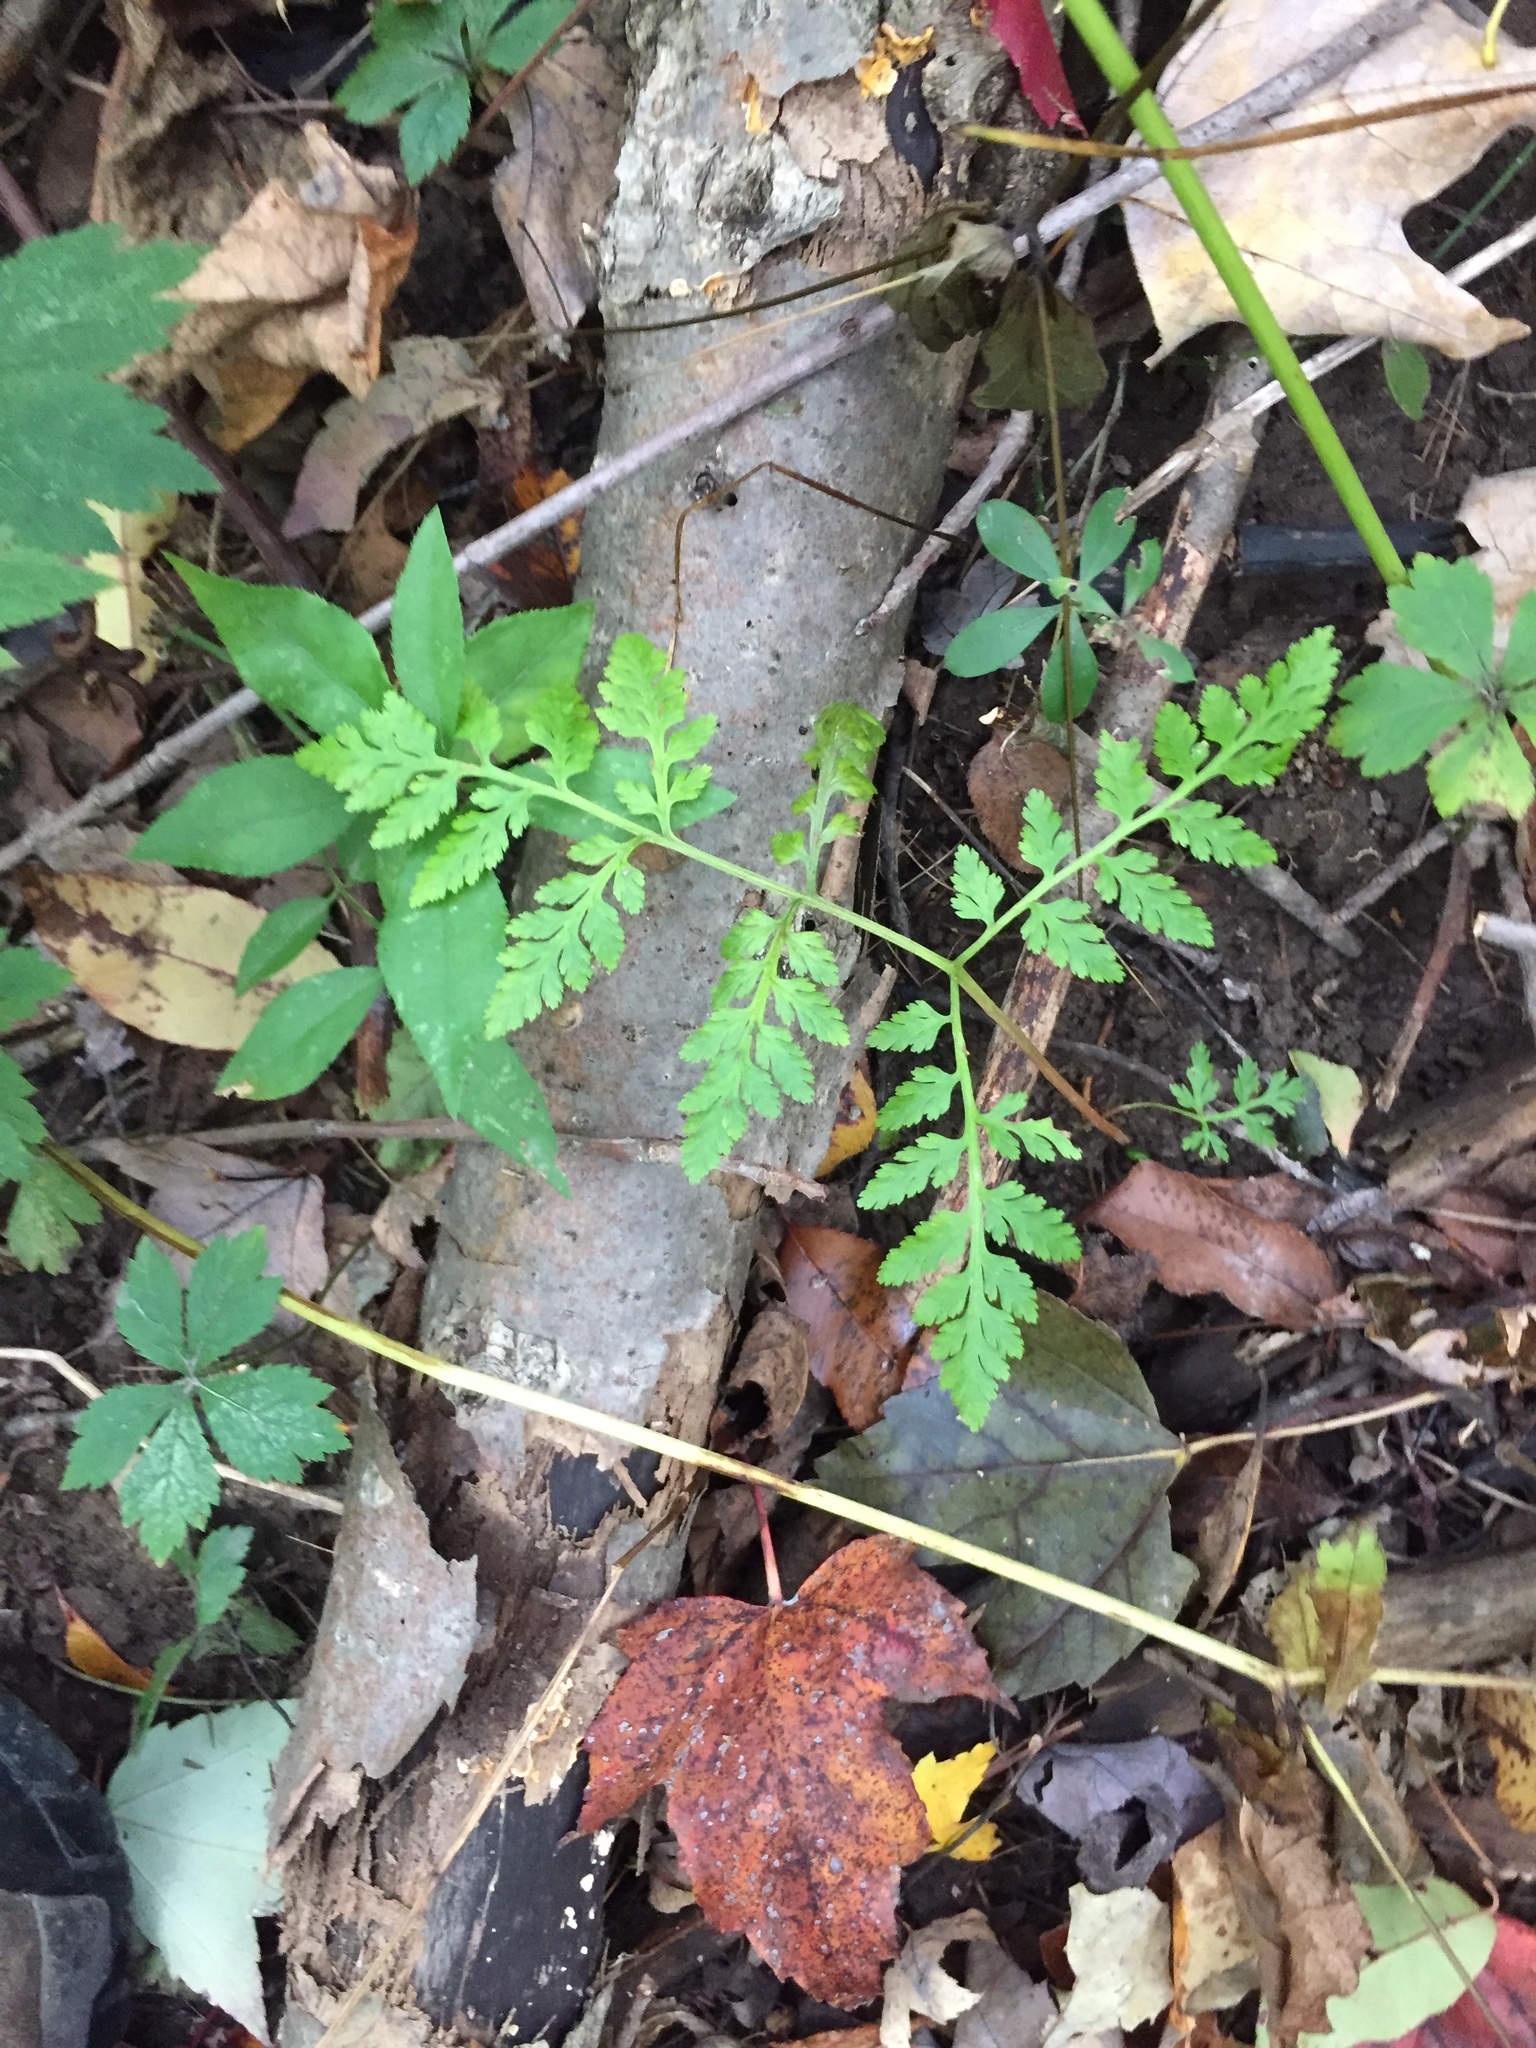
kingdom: Plantae
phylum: Tracheophyta
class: Polypodiopsida
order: Ophioglossales
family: Ophioglossaceae
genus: Botrypus
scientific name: Botrypus virginianus
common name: Common grapefern
